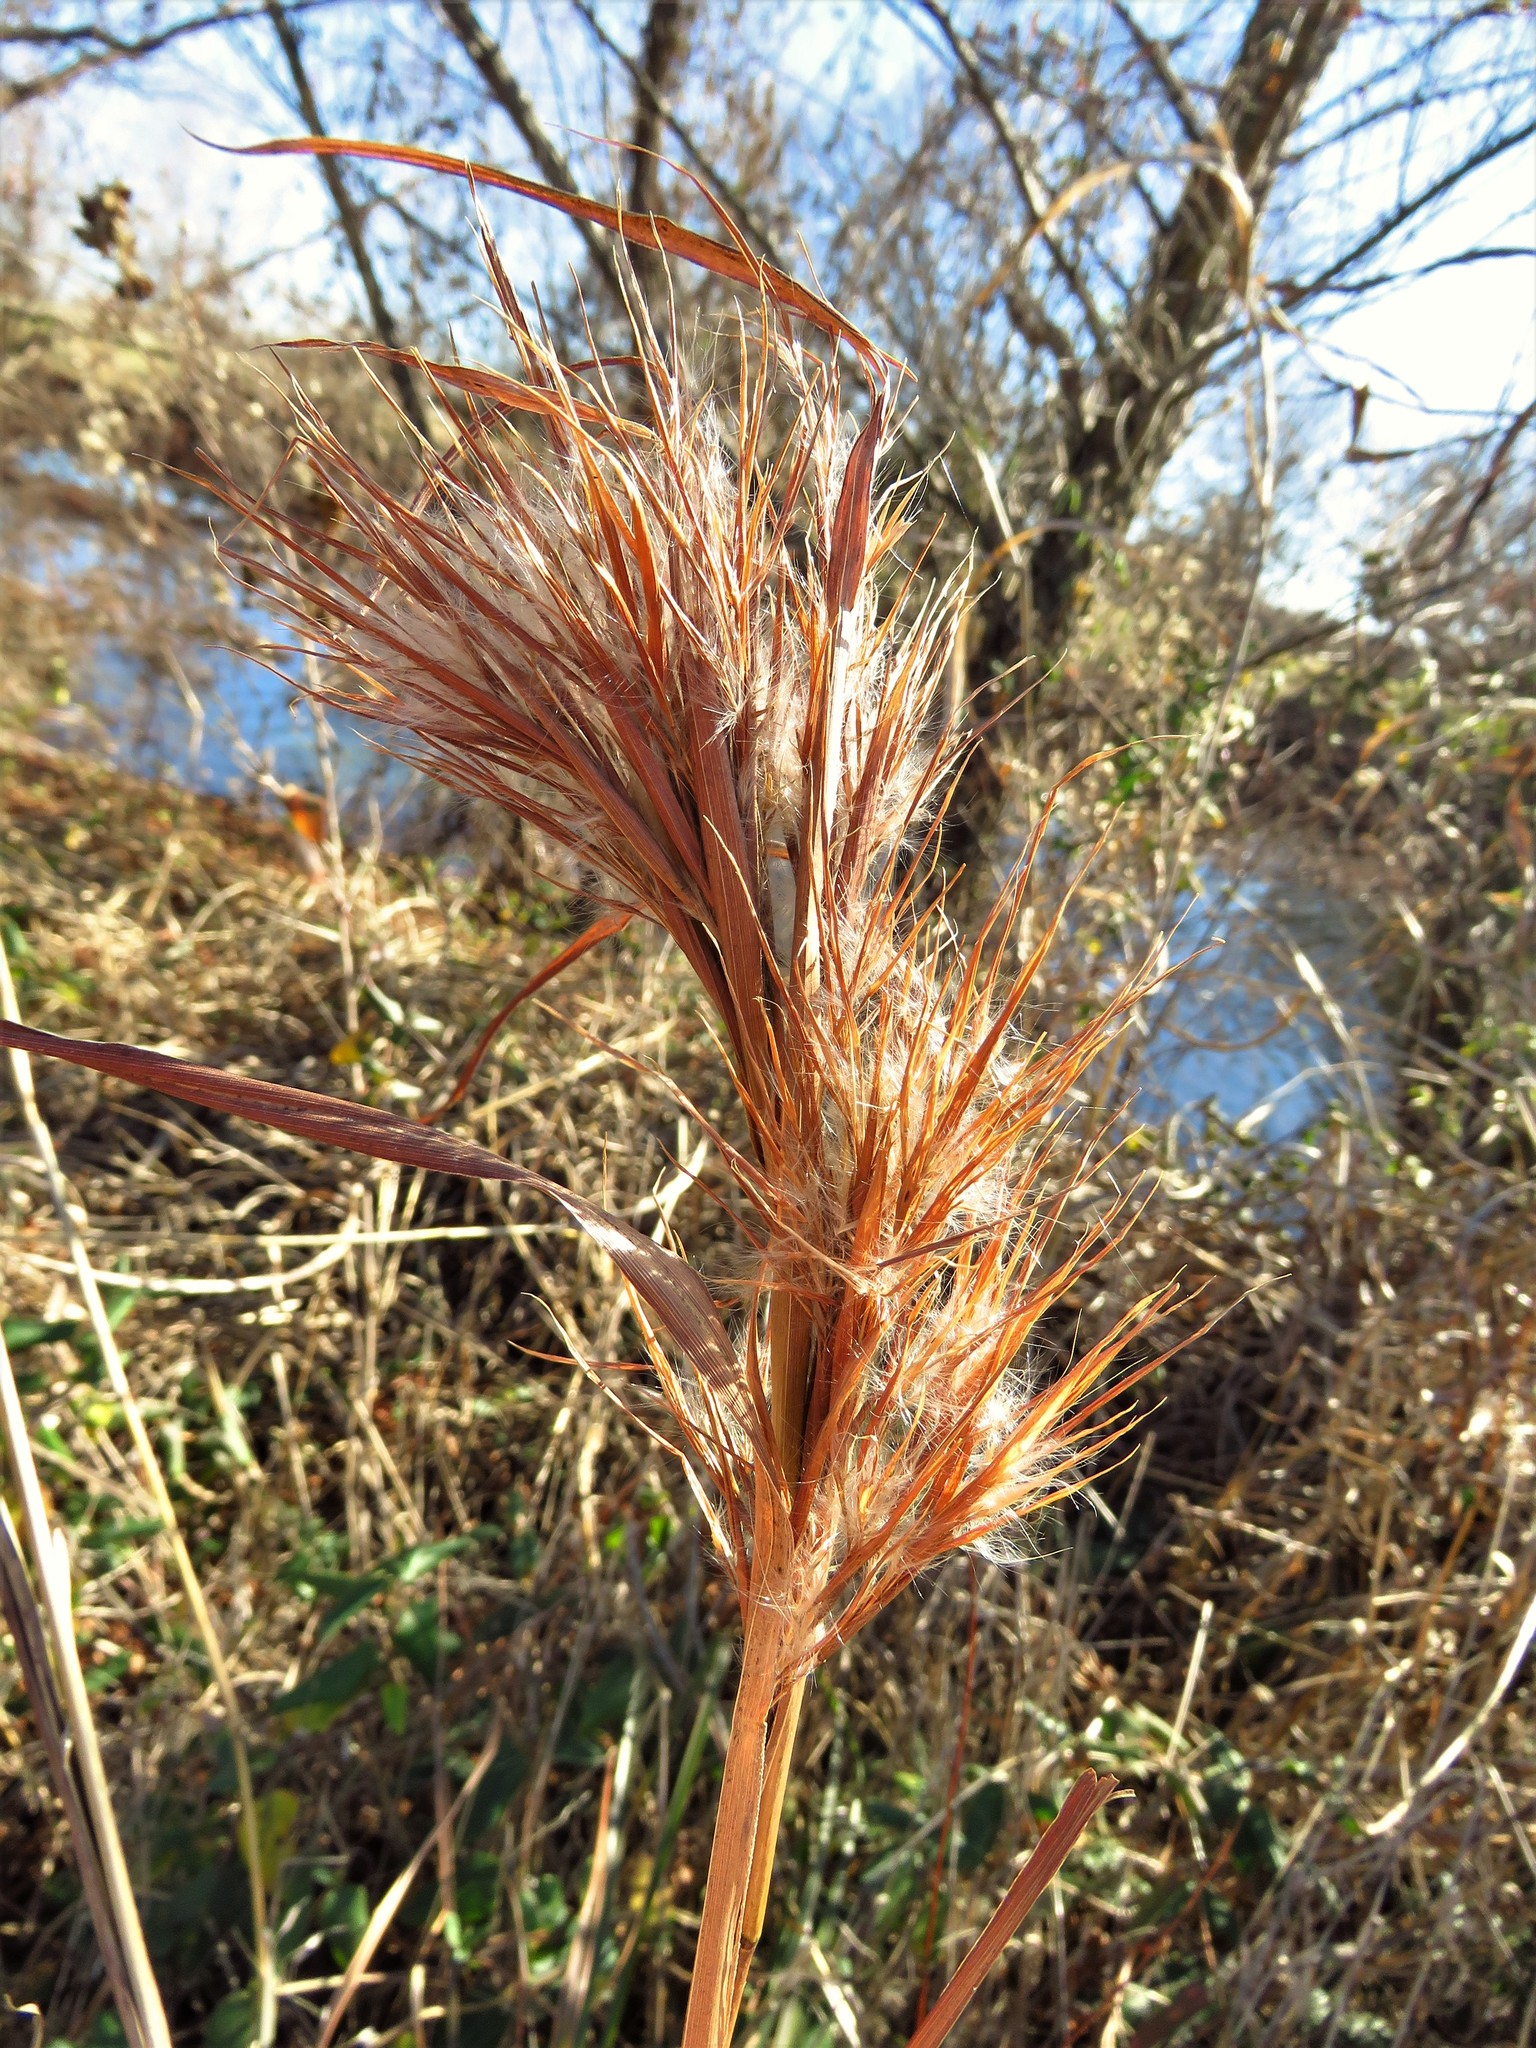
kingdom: Plantae
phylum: Tracheophyta
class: Liliopsida
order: Poales
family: Poaceae
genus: Andropogon
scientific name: Andropogon tenuispatheus
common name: Bushy bluestem
